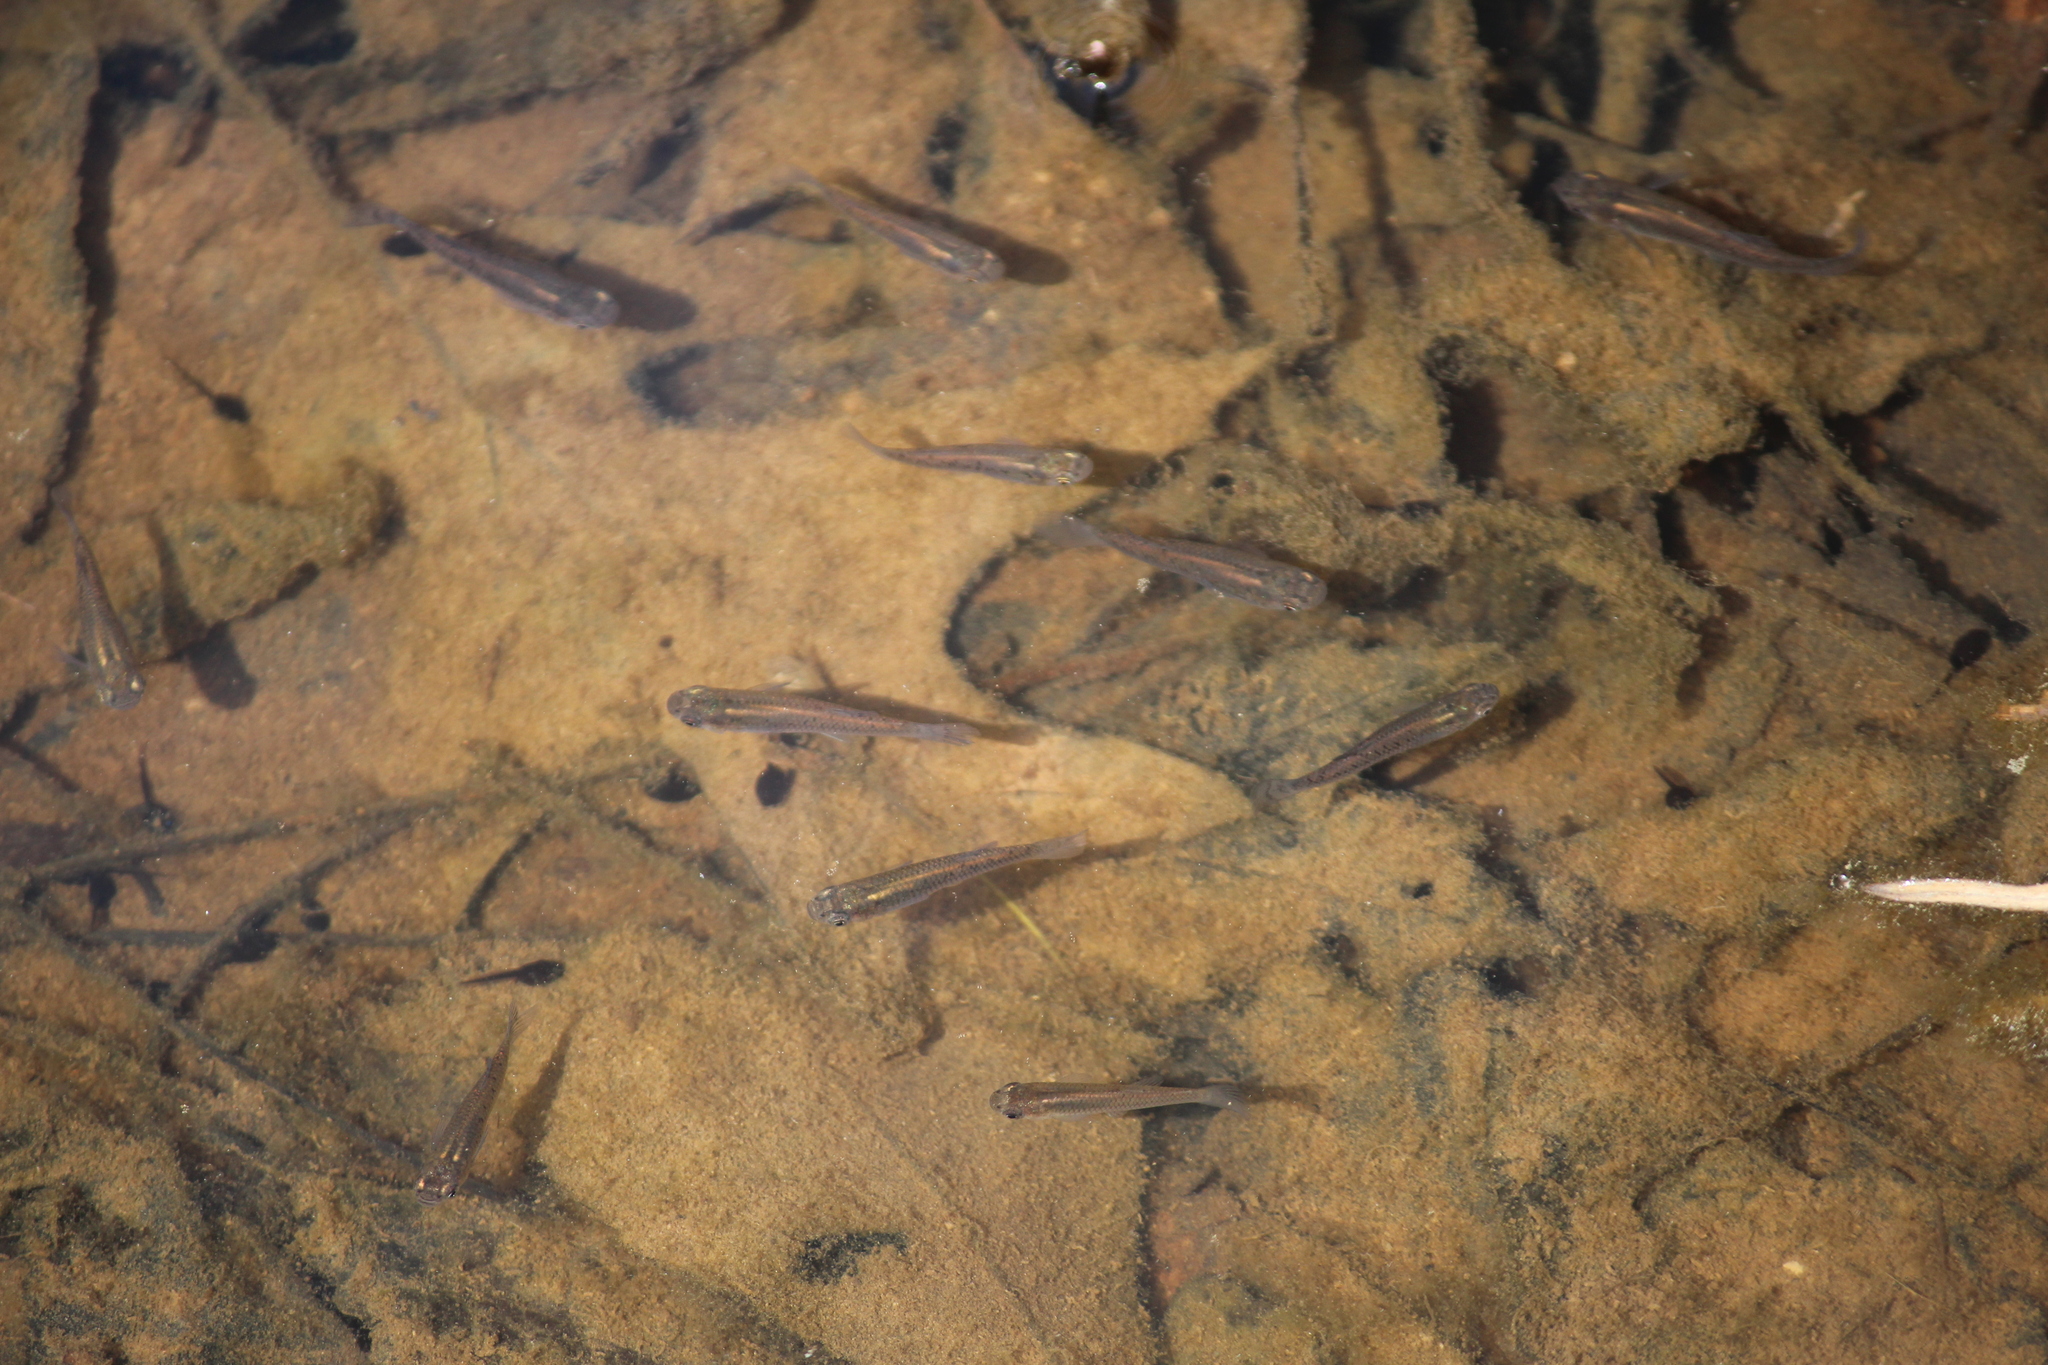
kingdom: Animalia
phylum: Chordata
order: Cyprinodontiformes
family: Poeciliidae
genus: Gambusia
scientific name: Gambusia holbrooki
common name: Eastern mosquitofish
